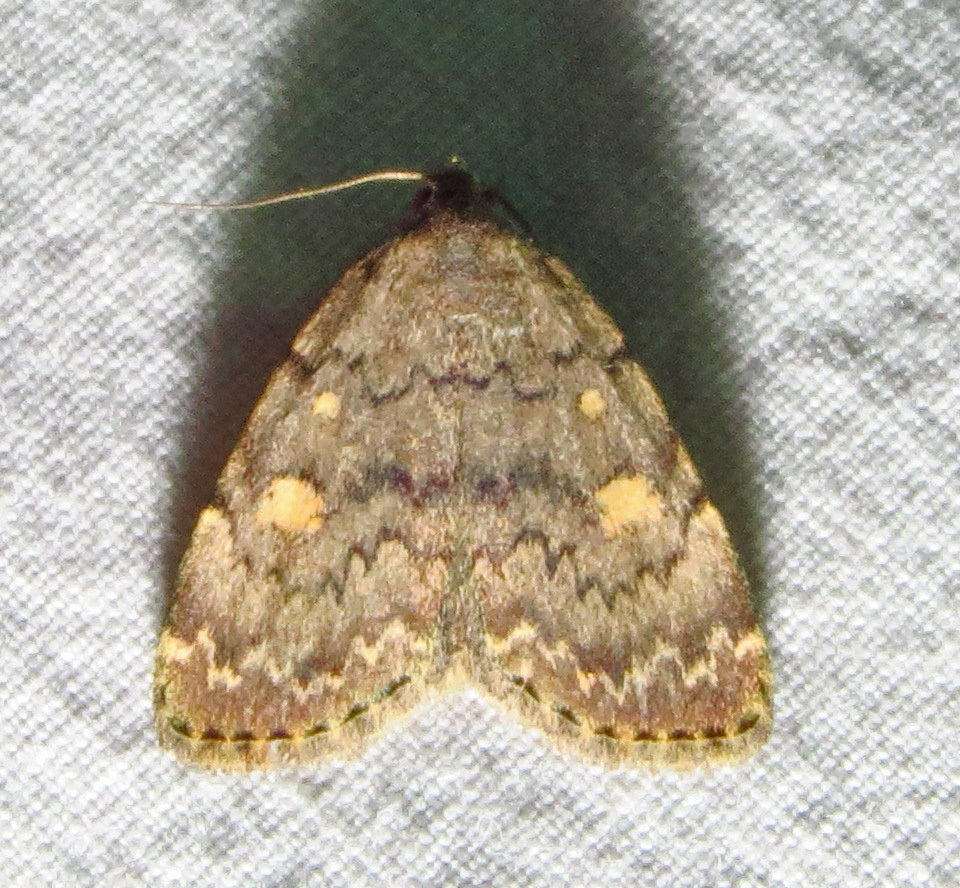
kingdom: Animalia
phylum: Arthropoda
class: Insecta
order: Lepidoptera
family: Erebidae
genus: Idia
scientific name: Idia aemula
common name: Common idia moth
